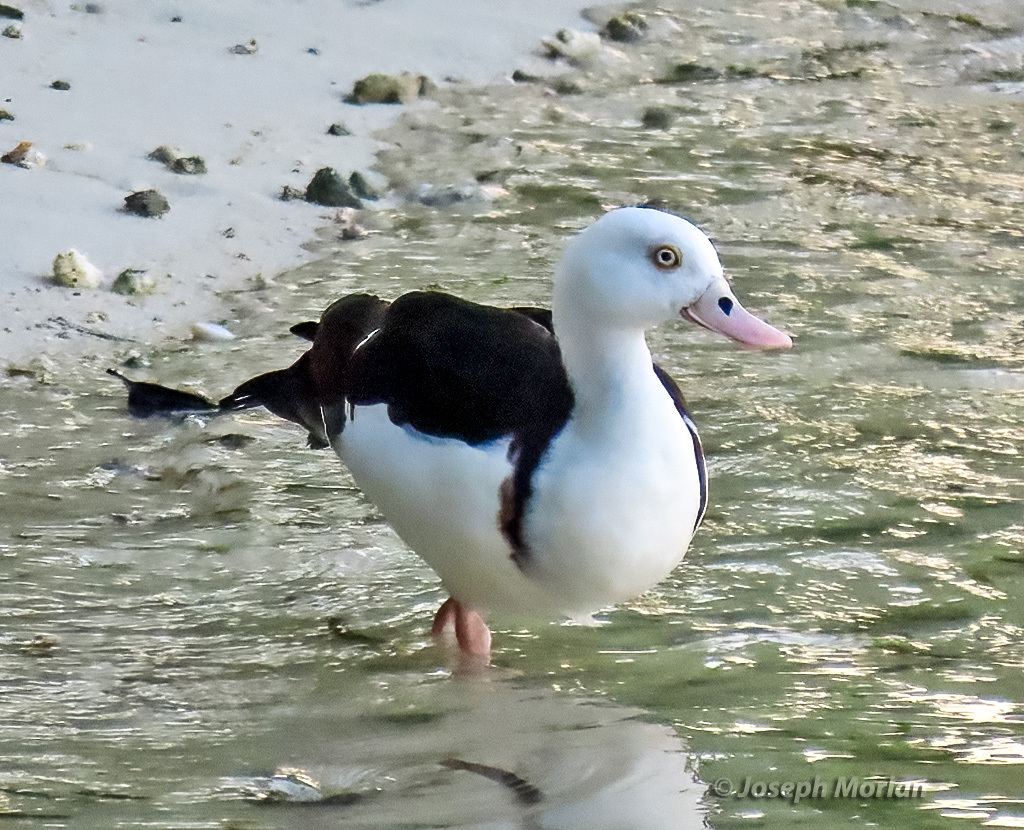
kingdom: Animalia
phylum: Chordata
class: Aves
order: Anseriformes
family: Anatidae
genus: Radjah
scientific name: Radjah radjah
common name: Radjah shelduck
